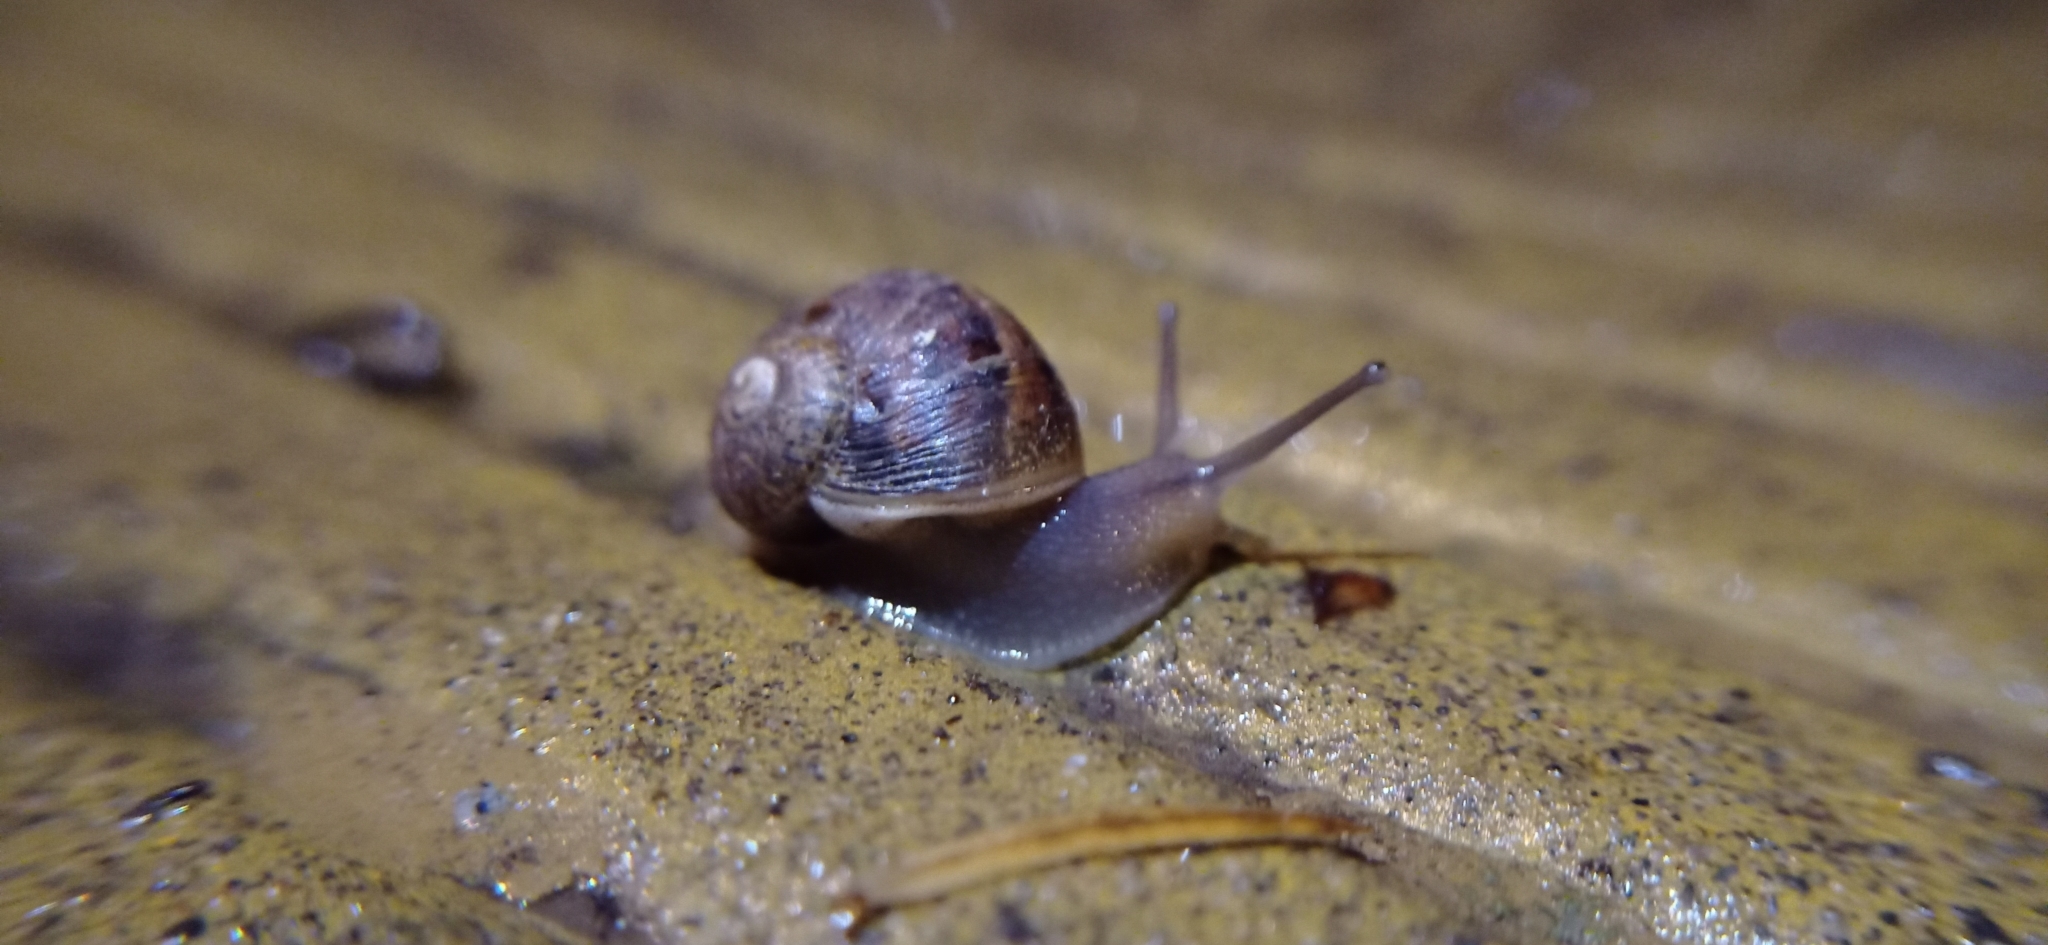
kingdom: Animalia
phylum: Mollusca
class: Gastropoda
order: Stylommatophora
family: Helicidae
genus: Cornu
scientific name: Cornu aspersum
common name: Brown garden snail
